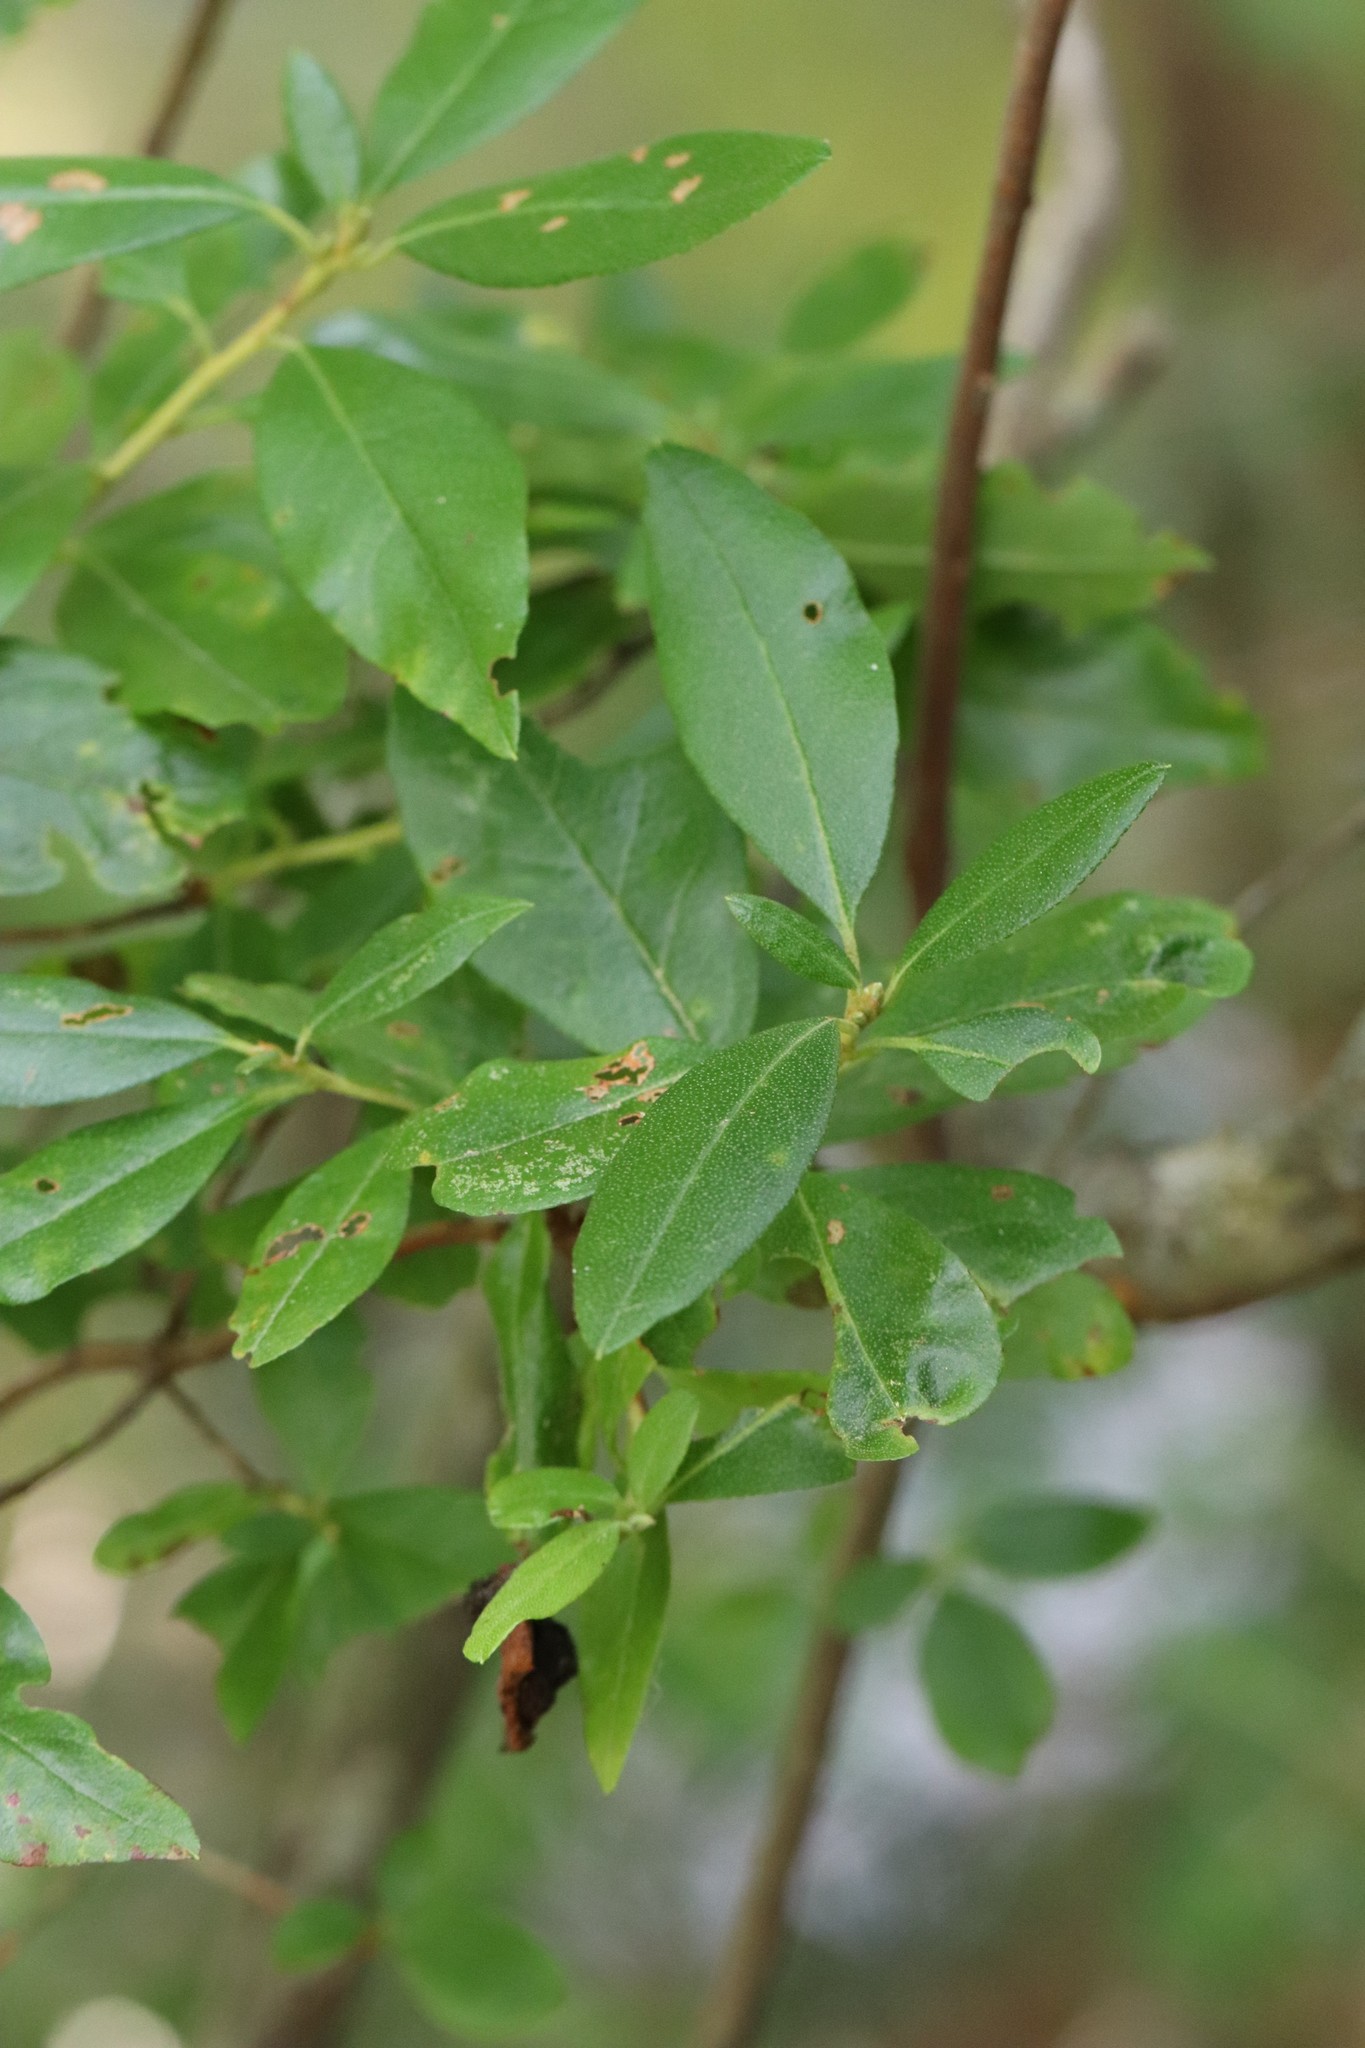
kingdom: Plantae
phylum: Tracheophyta
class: Magnoliopsida
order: Ericales
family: Ericaceae
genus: Rhododendron
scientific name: Rhododendron mucronulatum
